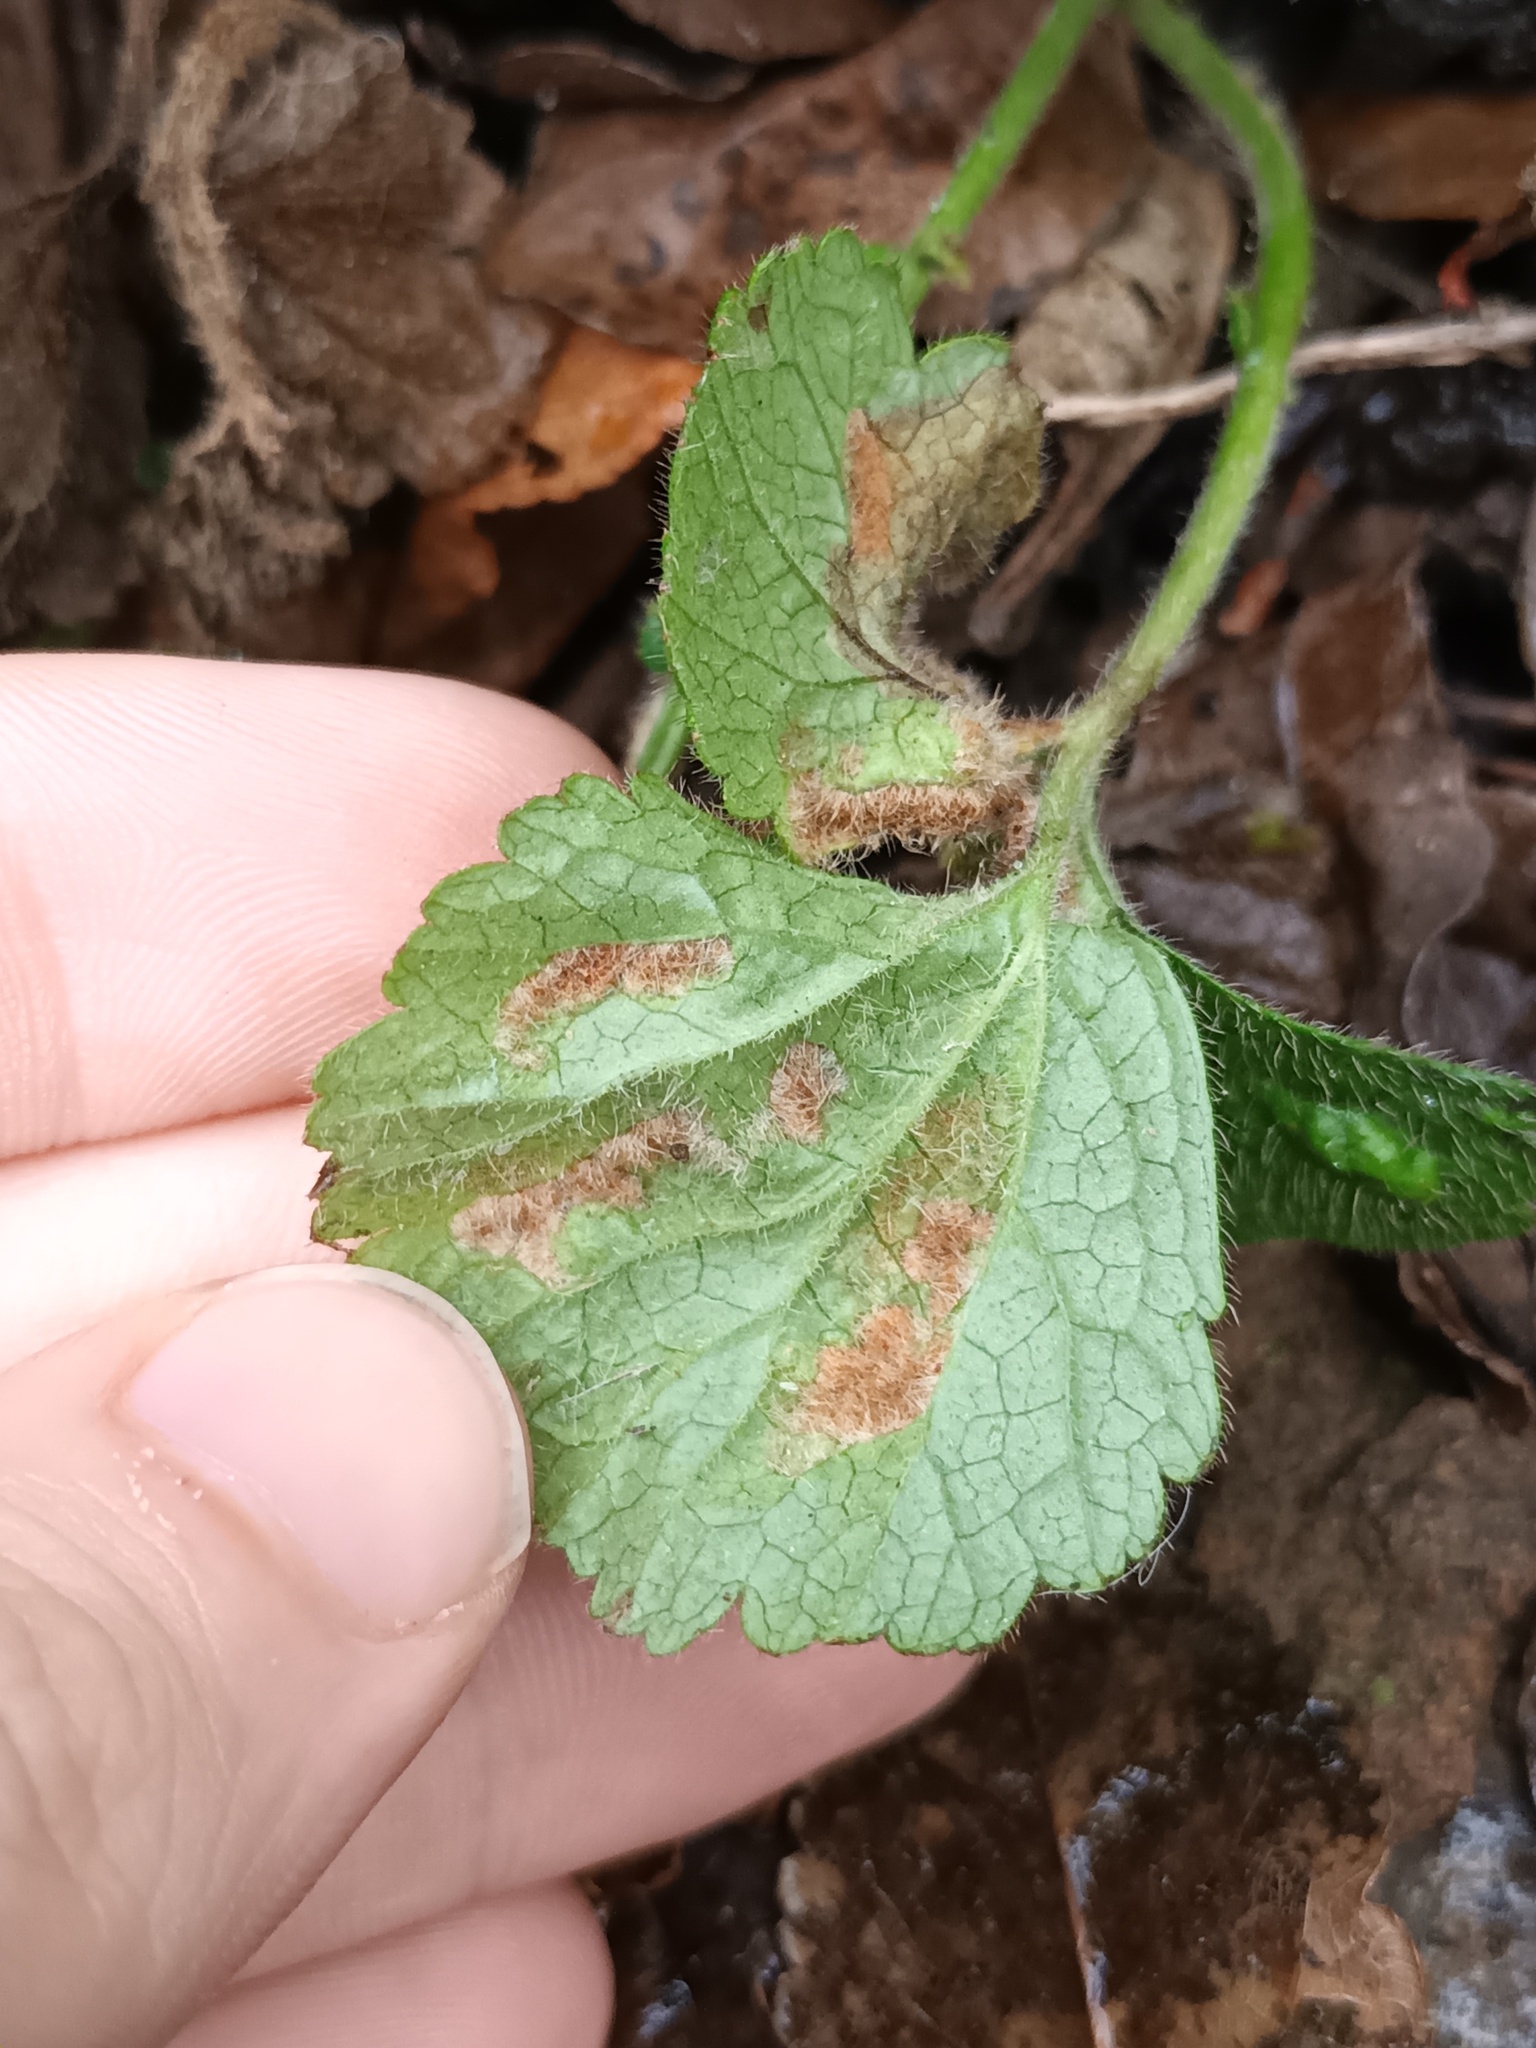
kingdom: Animalia
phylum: Arthropoda
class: Arachnida
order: Trombidiformes
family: Eriophyidae
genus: Cecidophyes
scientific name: Cecidophyes nudus
